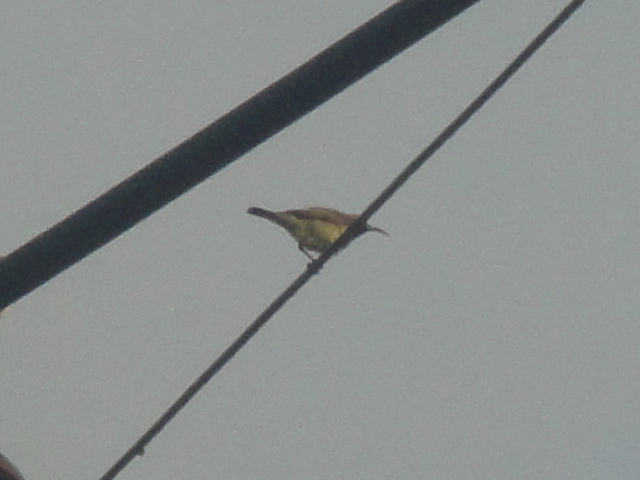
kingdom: Animalia
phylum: Chordata
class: Aves
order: Passeriformes
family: Nectariniidae
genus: Cinnyris
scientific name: Cinnyris
